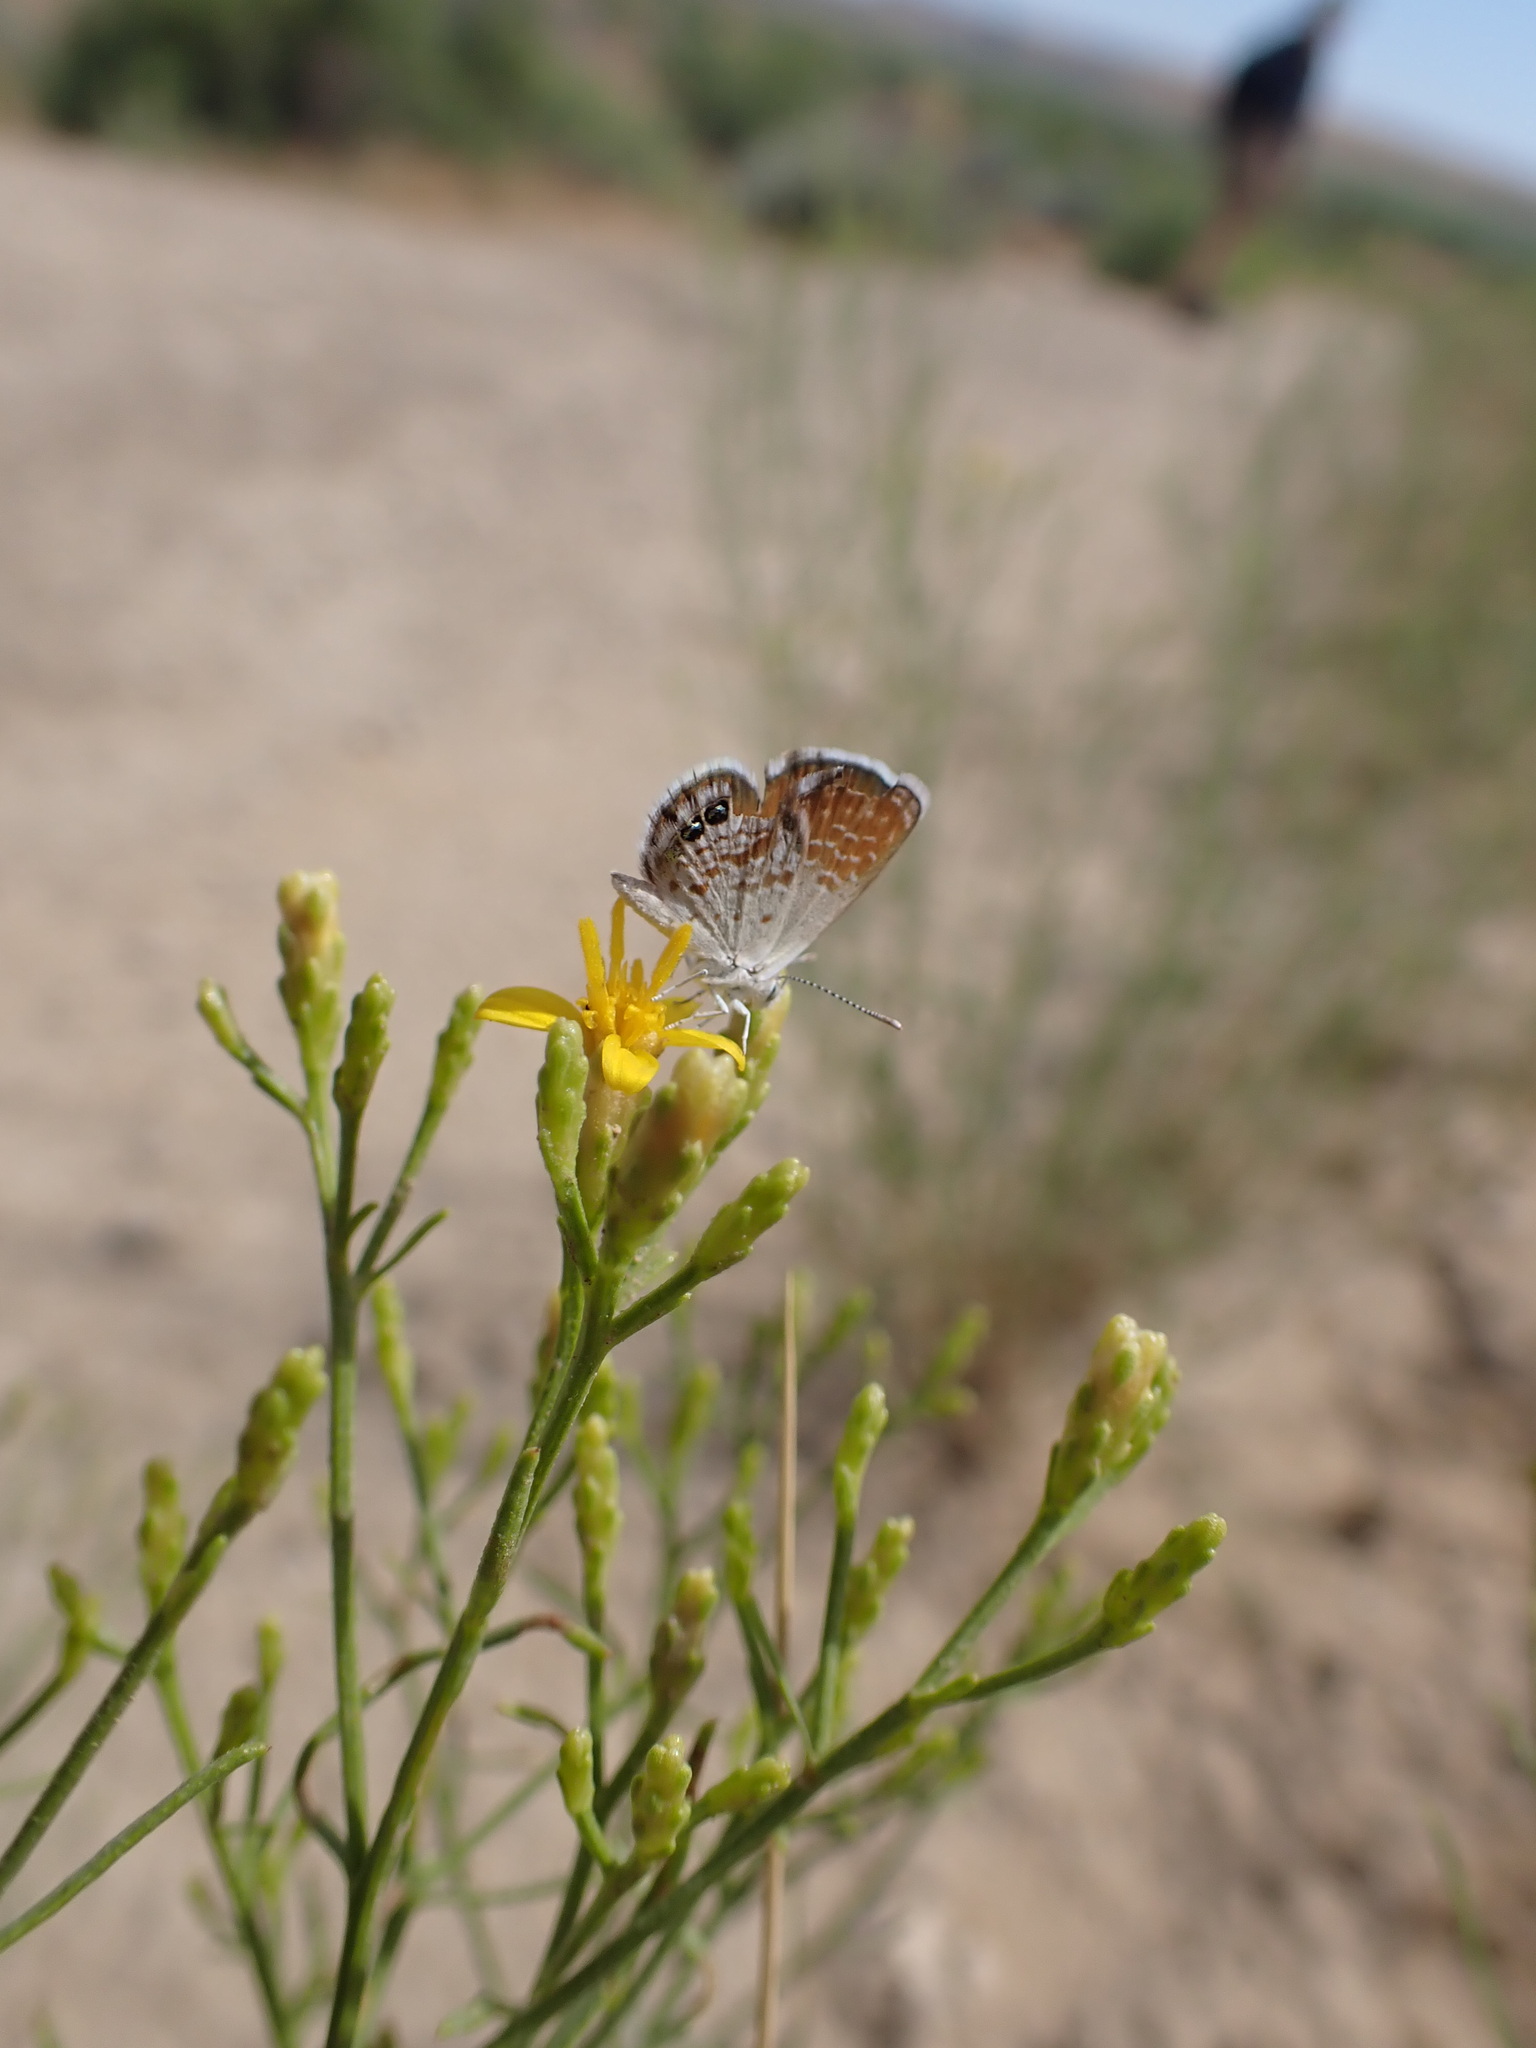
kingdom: Animalia
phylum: Arthropoda
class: Insecta
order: Lepidoptera
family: Lycaenidae
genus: Brephidium
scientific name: Brephidium exilis
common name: Pygmy blue
